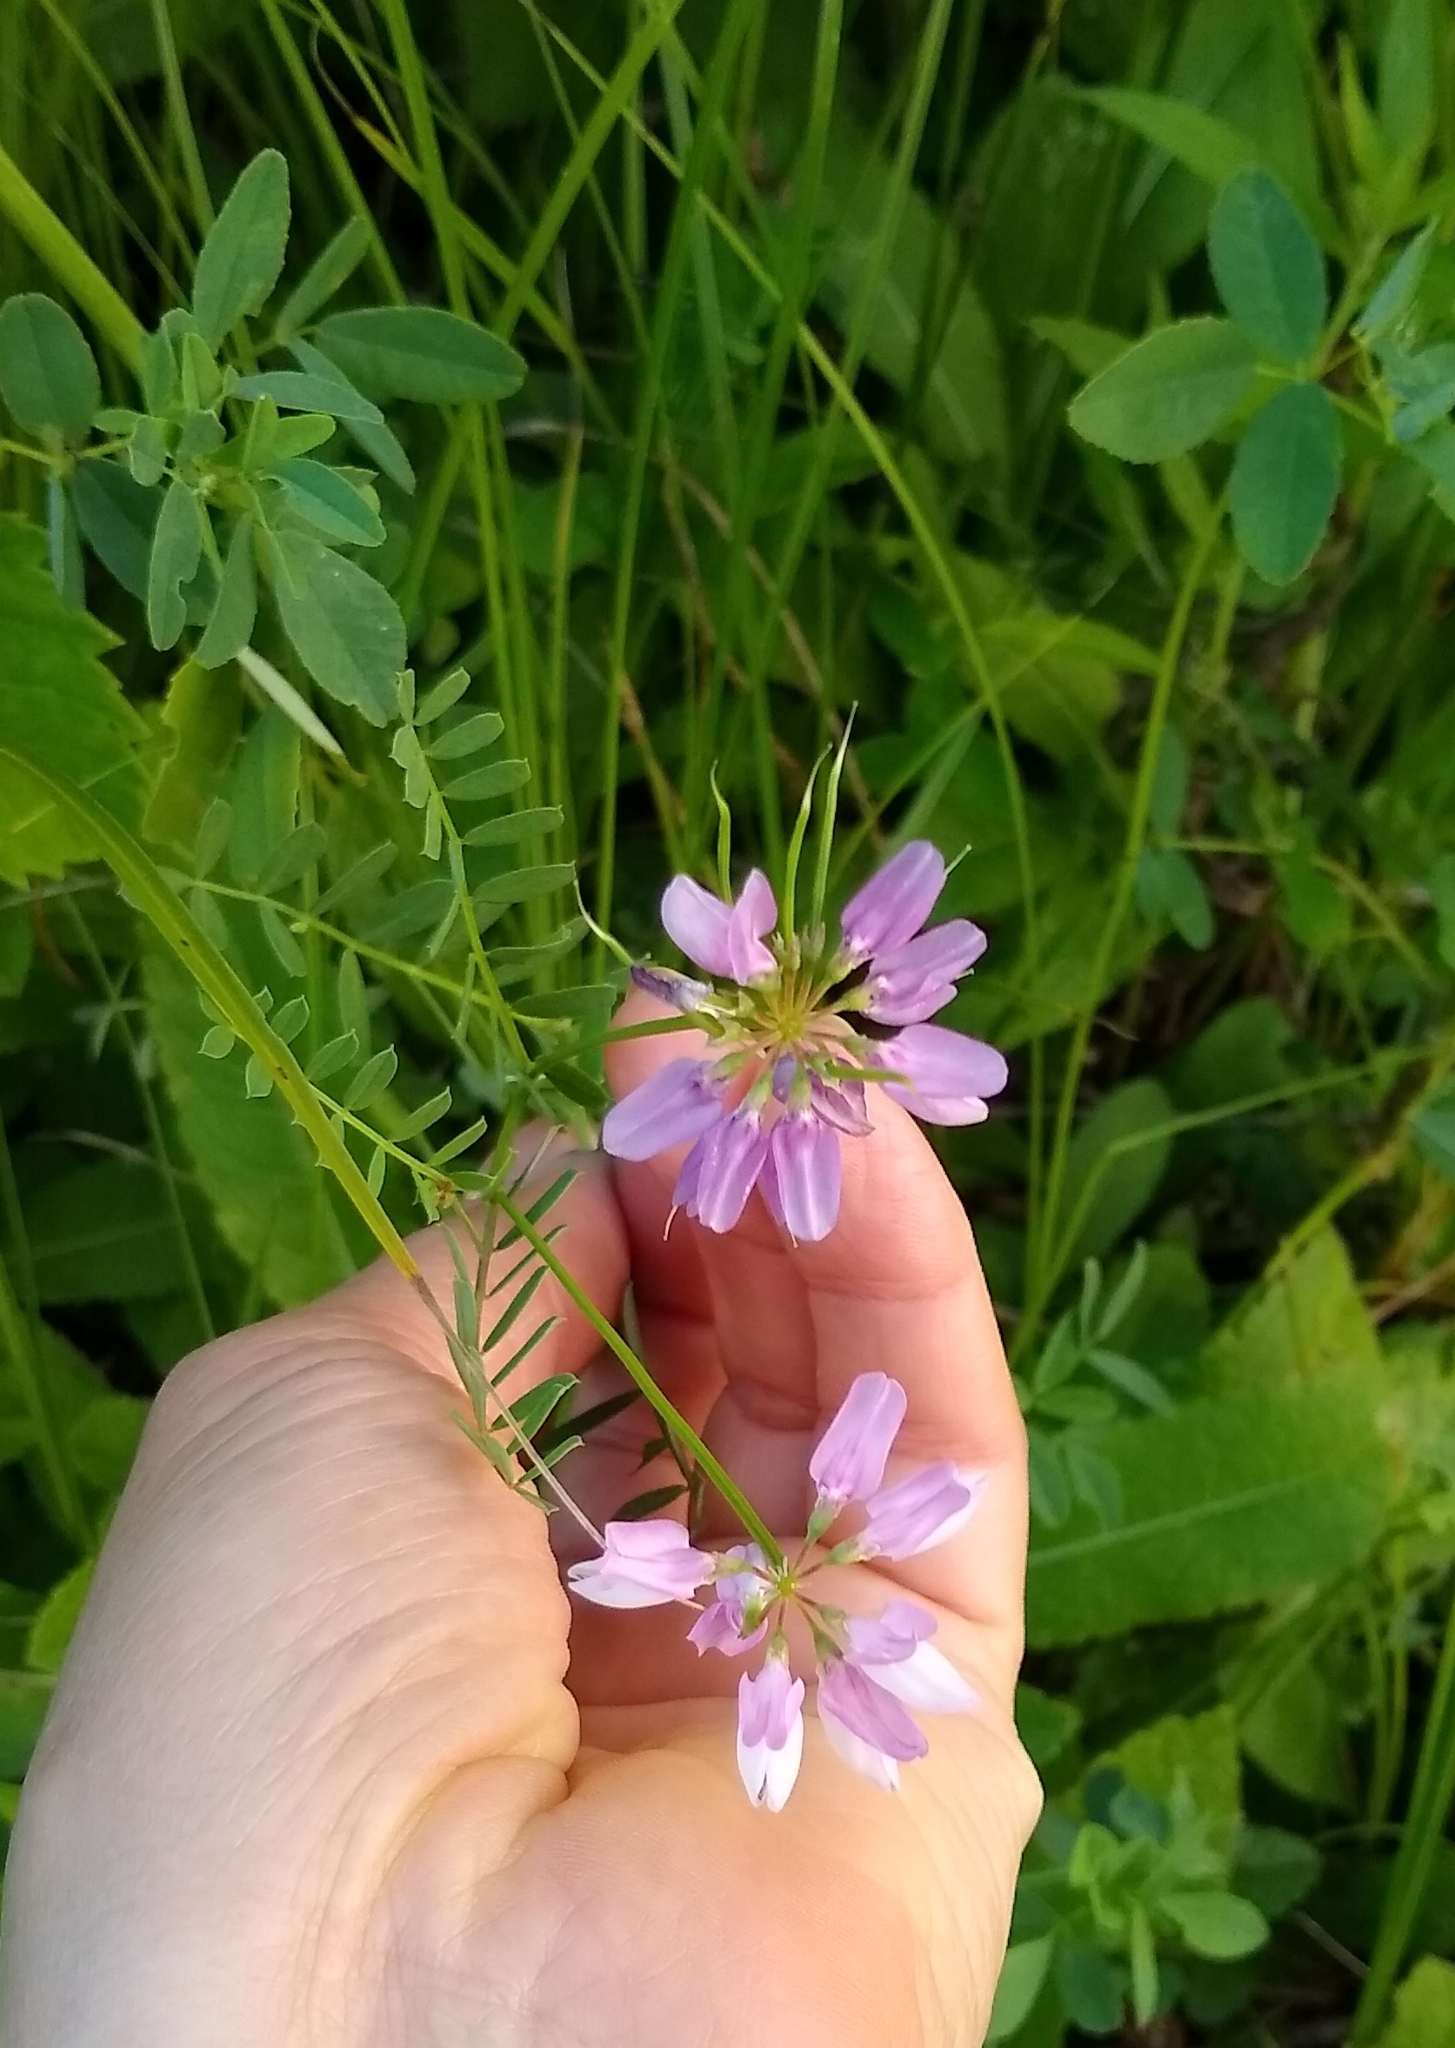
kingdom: Plantae
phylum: Tracheophyta
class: Magnoliopsida
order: Fabales
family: Fabaceae
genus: Coronilla
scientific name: Coronilla varia
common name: Crownvetch
